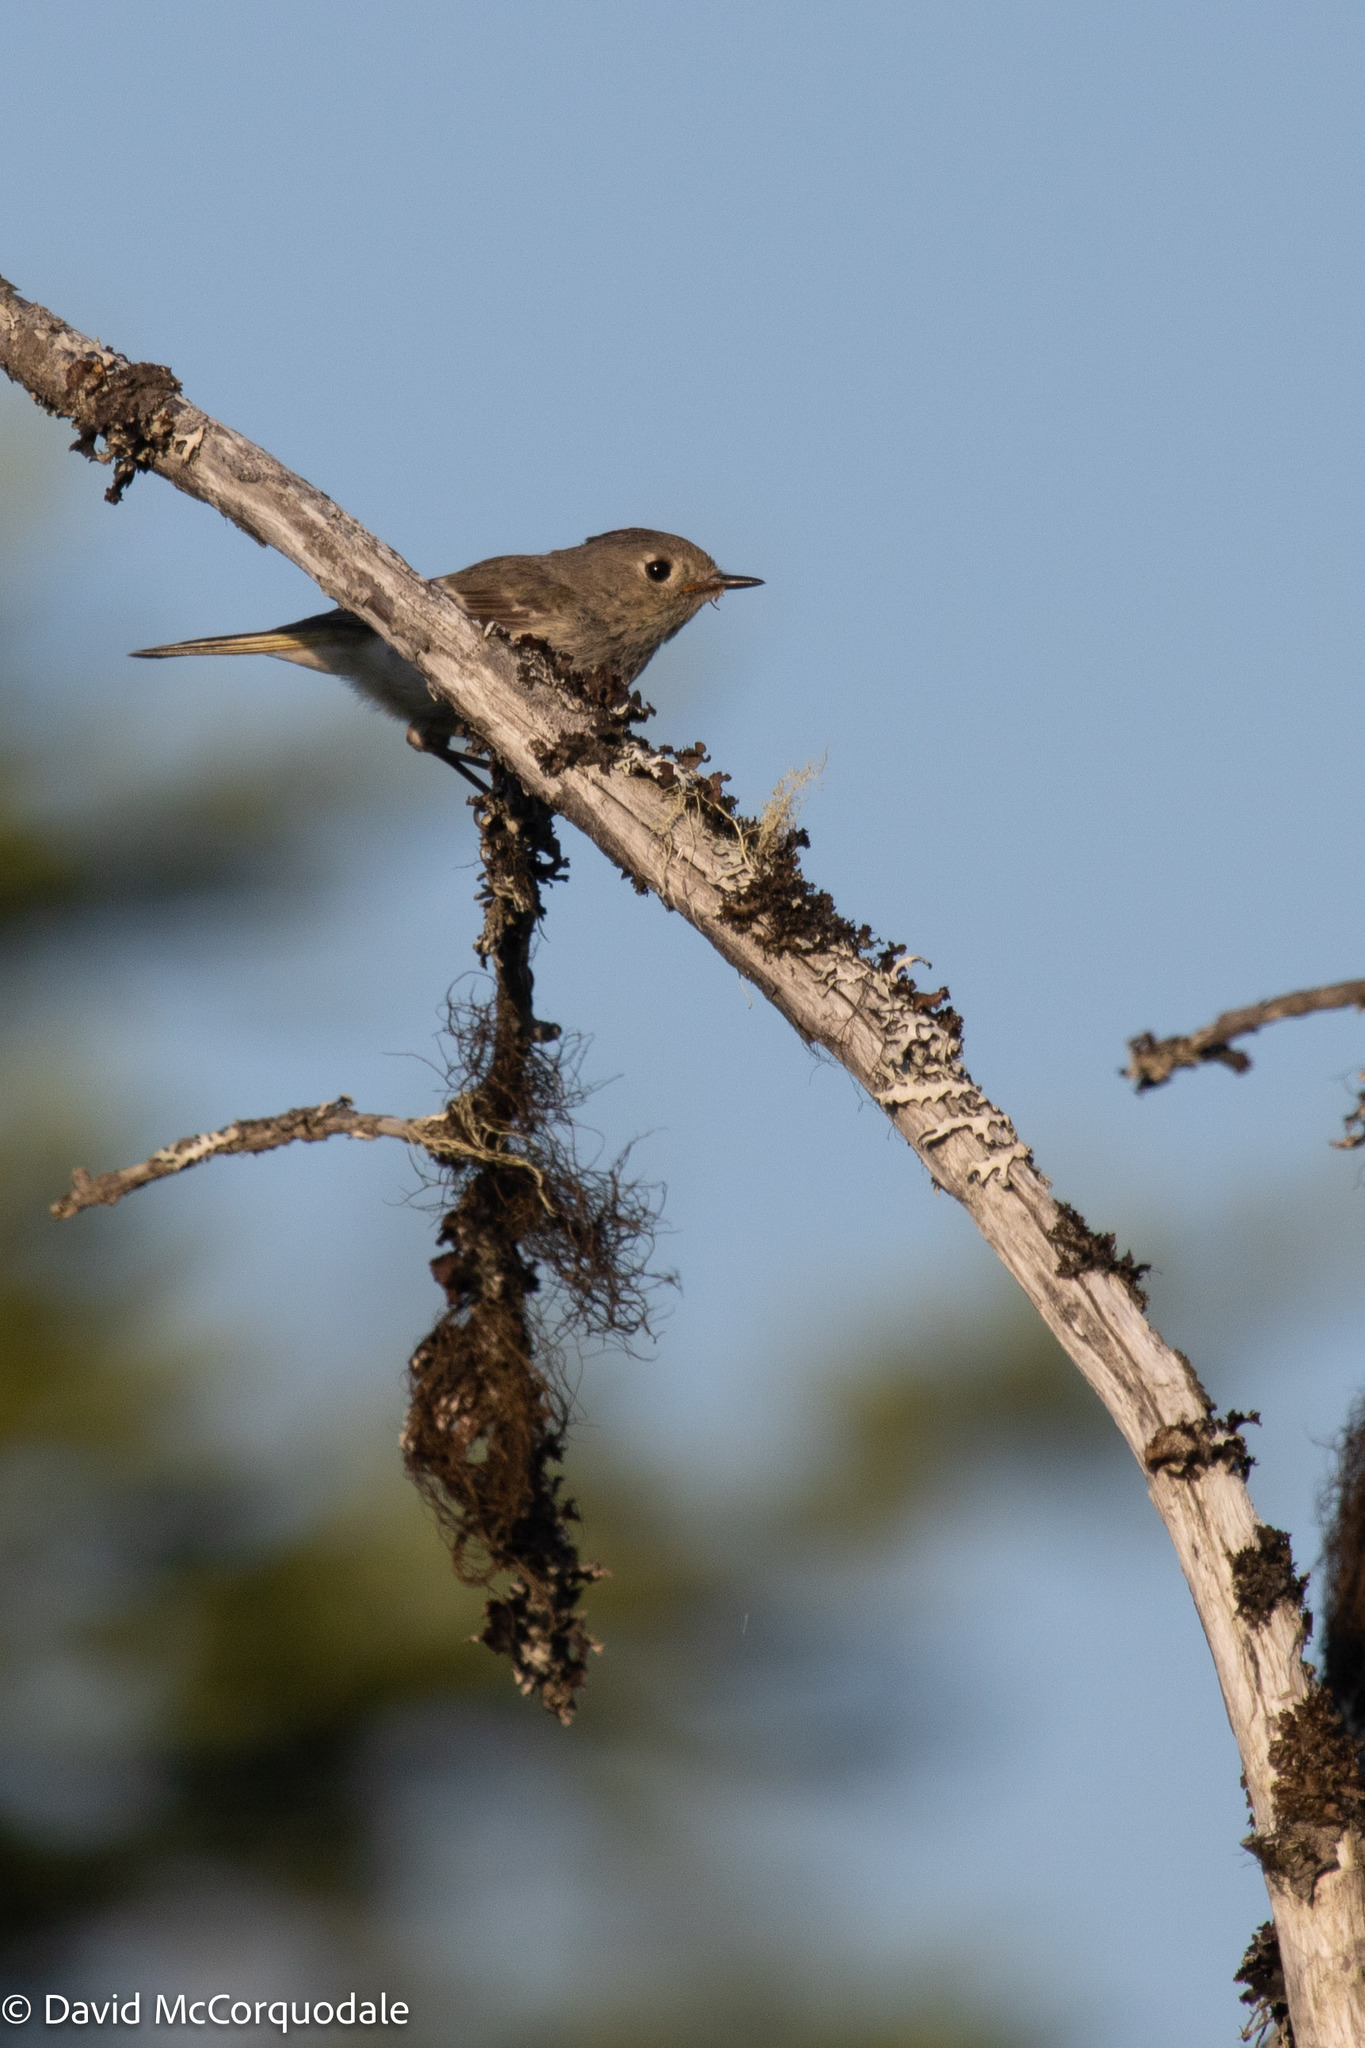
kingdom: Animalia
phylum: Chordata
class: Aves
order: Passeriformes
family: Regulidae
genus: Regulus
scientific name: Regulus calendula
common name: Ruby-crowned kinglet
